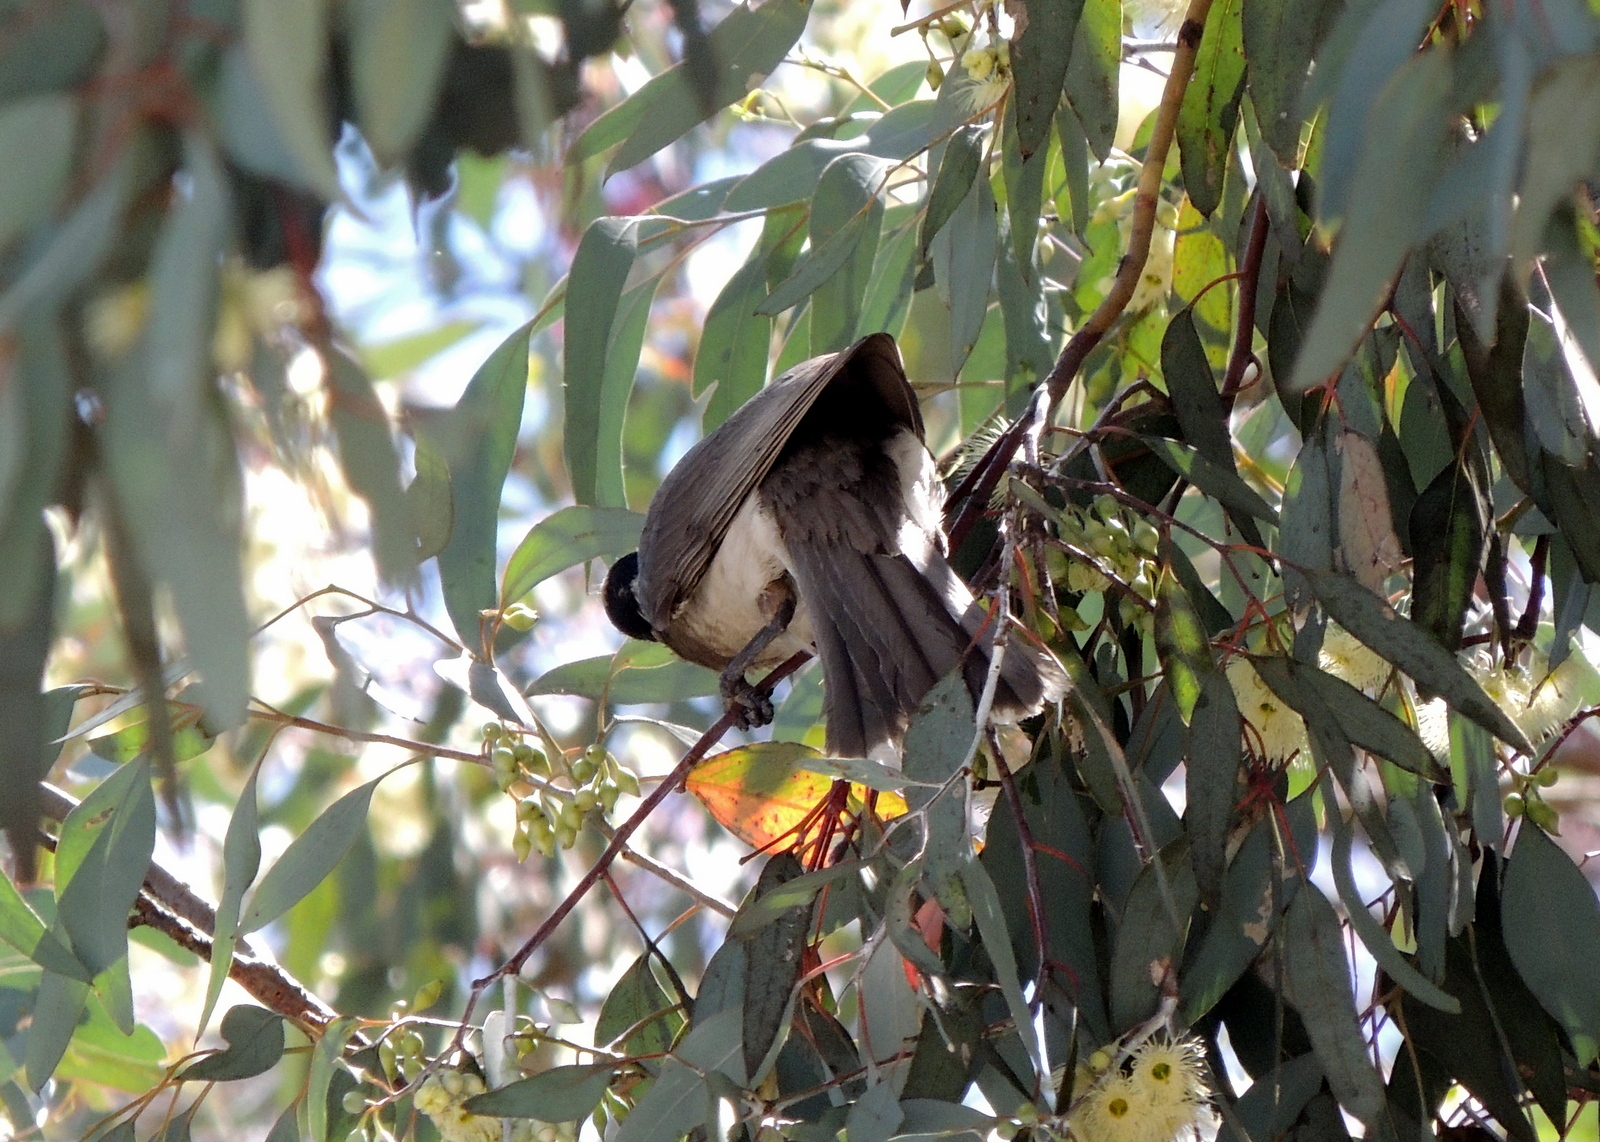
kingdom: Animalia
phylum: Chordata
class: Aves
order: Passeriformes
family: Meliphagidae
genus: Philemon
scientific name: Philemon corniculatus
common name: Noisy friarbird
